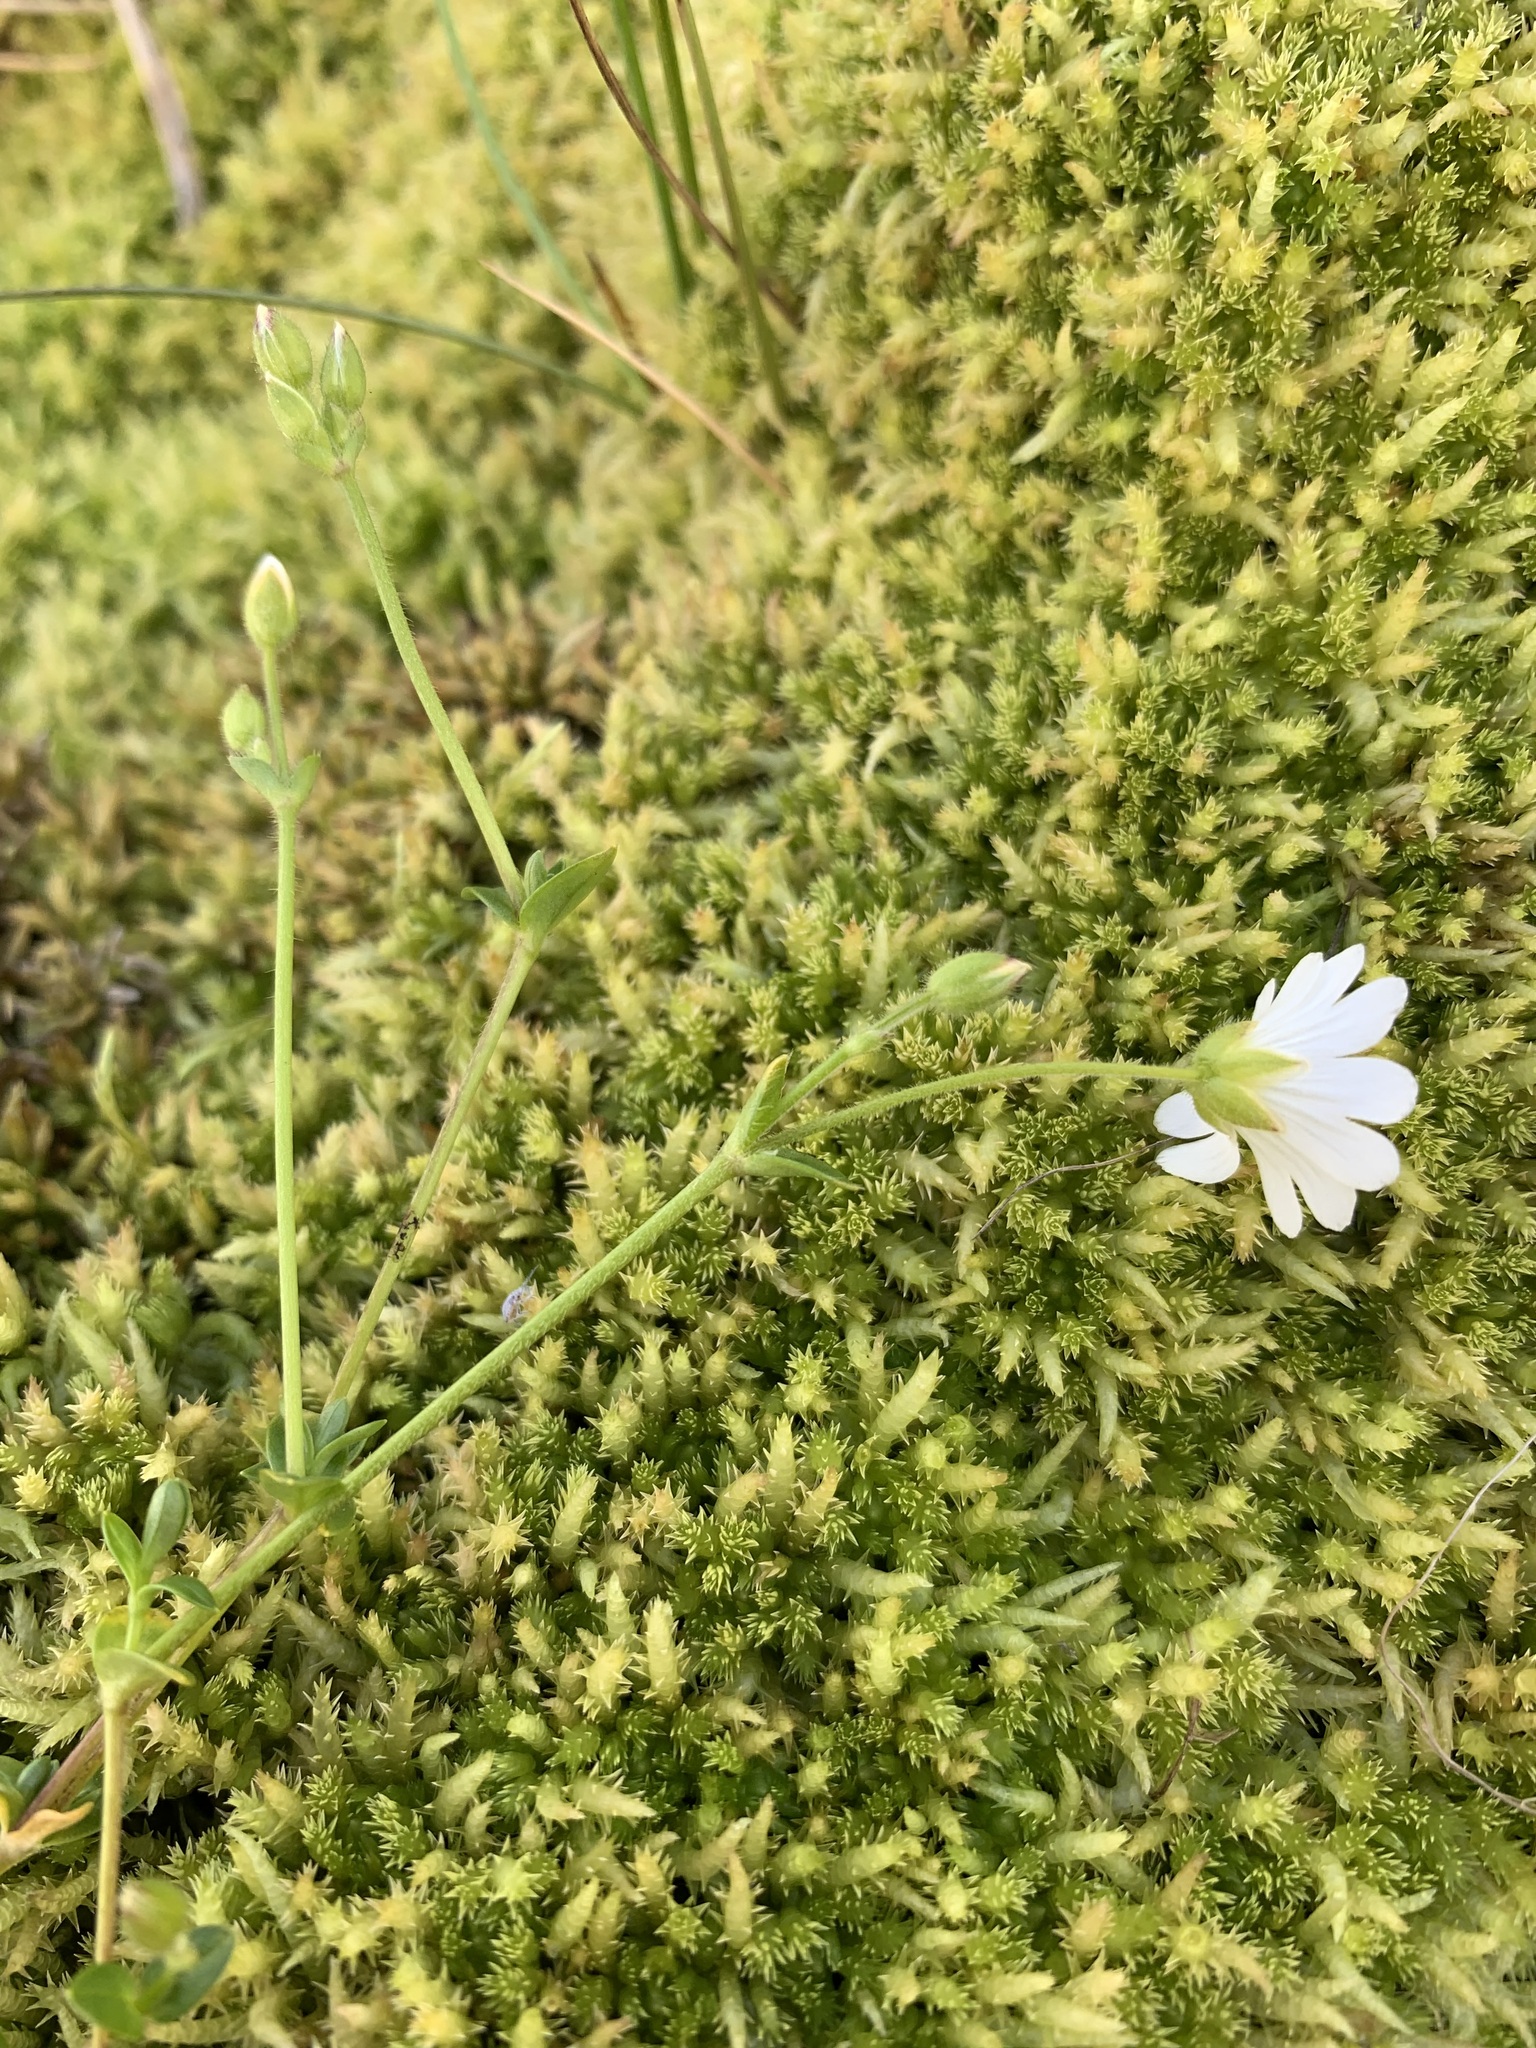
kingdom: Plantae
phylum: Tracheophyta
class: Magnoliopsida
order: Caryophyllales
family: Caryophyllaceae
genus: Cerastium
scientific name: Cerastium regelii
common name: Regel's chickweed
